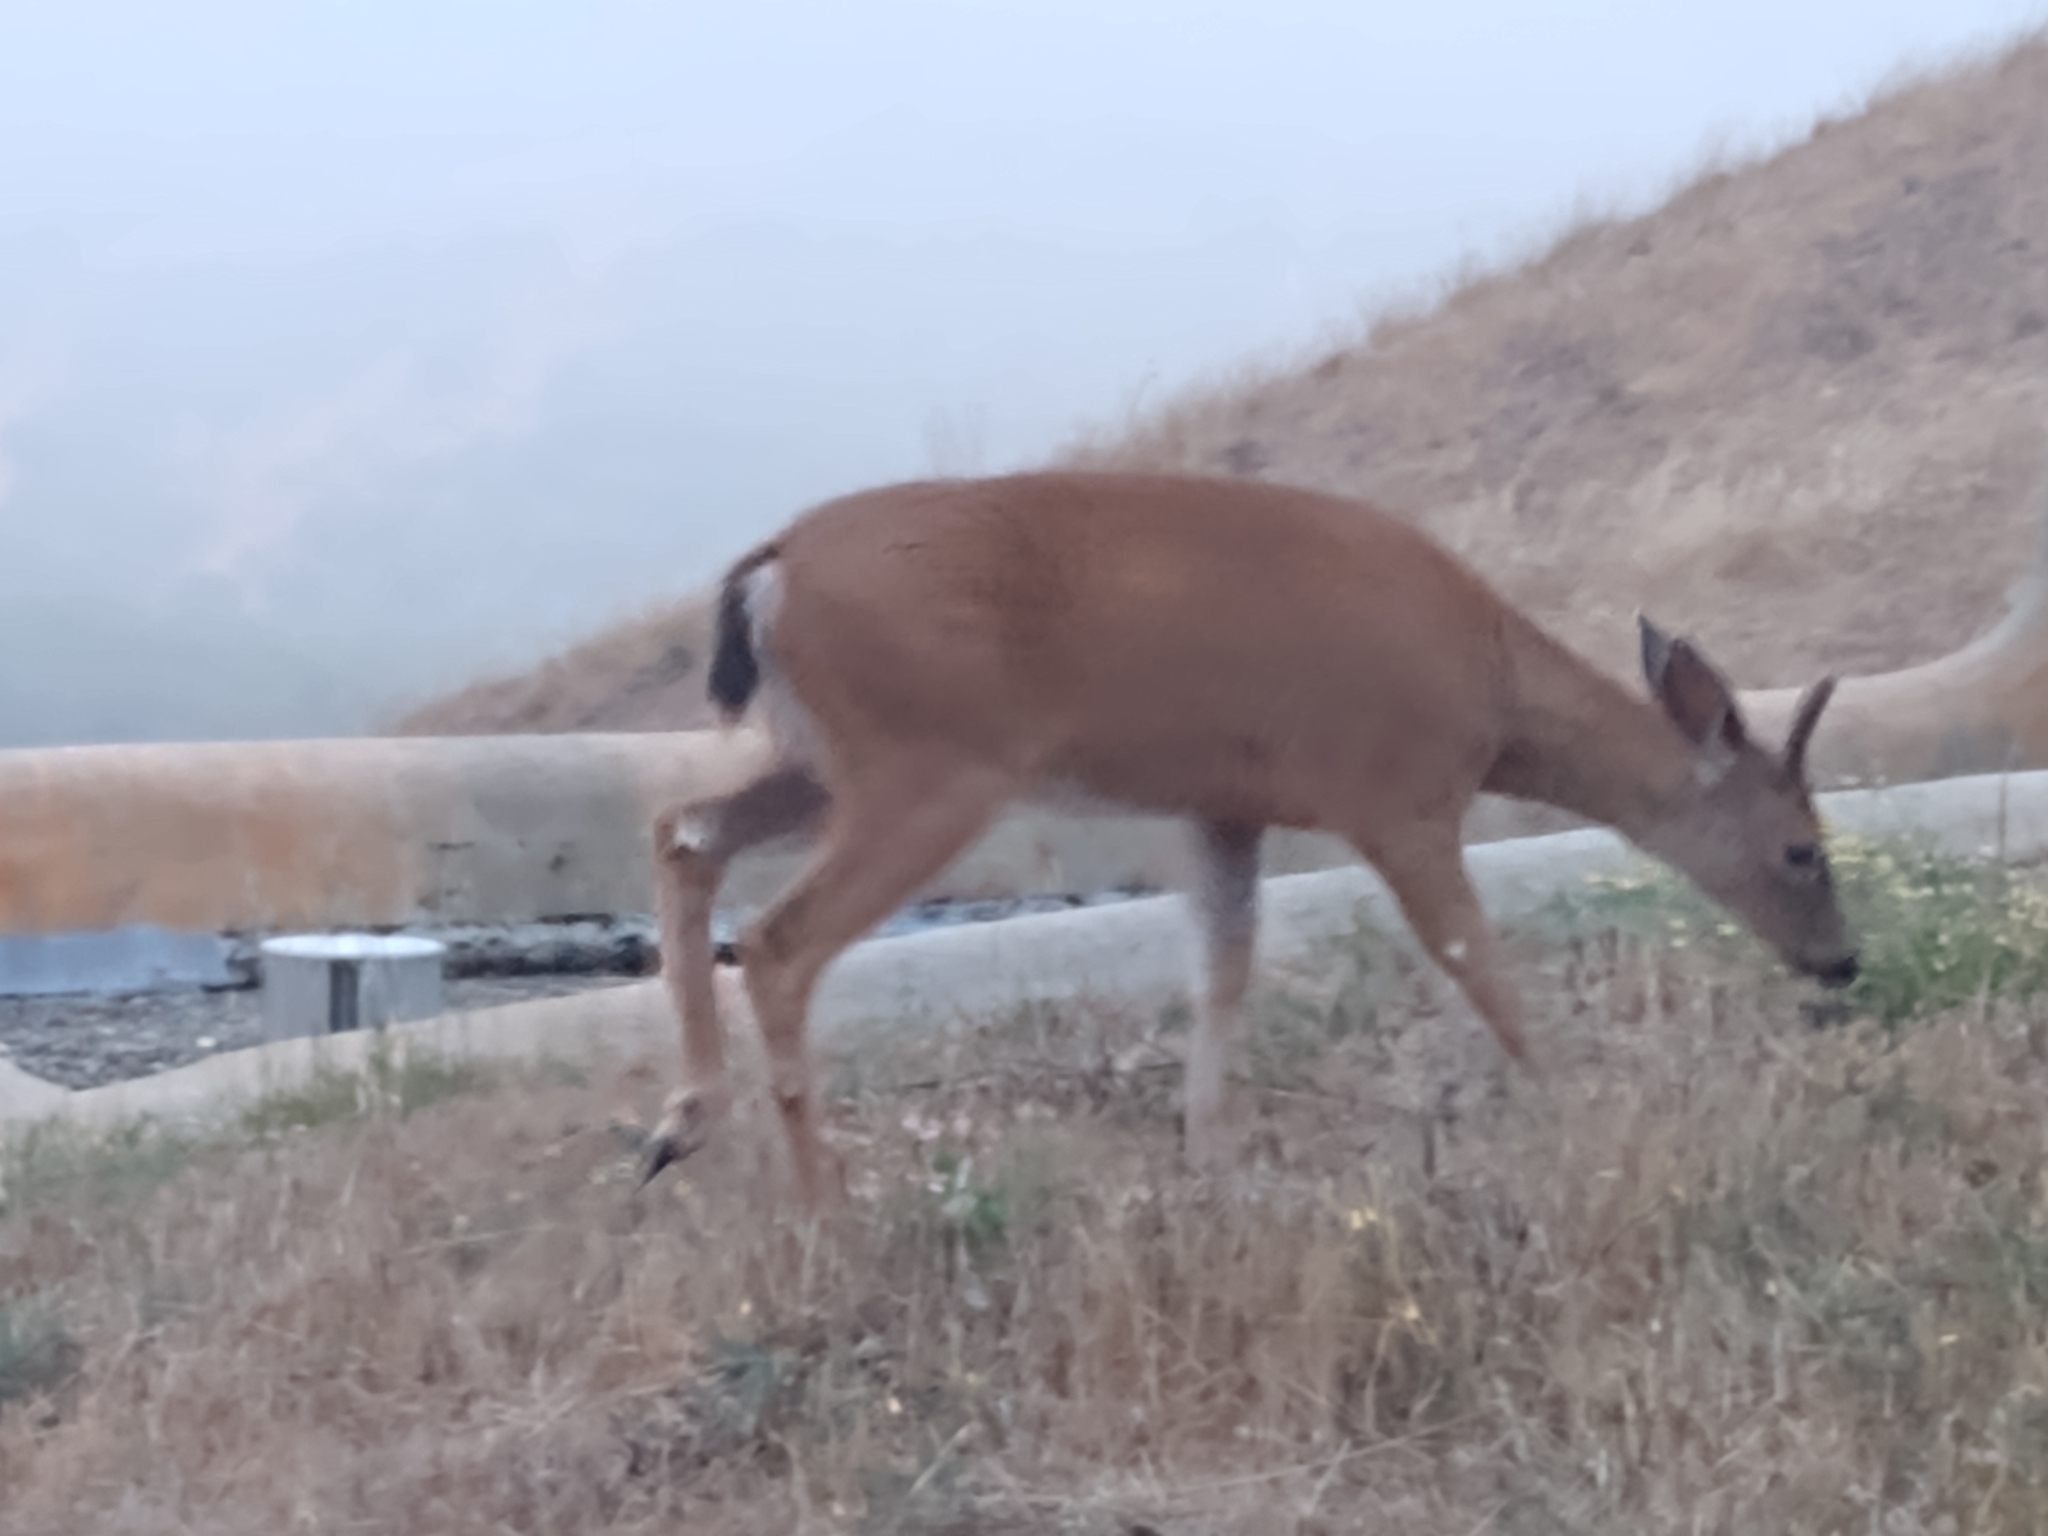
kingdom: Animalia
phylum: Chordata
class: Mammalia
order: Artiodactyla
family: Cervidae
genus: Odocoileus
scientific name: Odocoileus hemionus
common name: Mule deer
